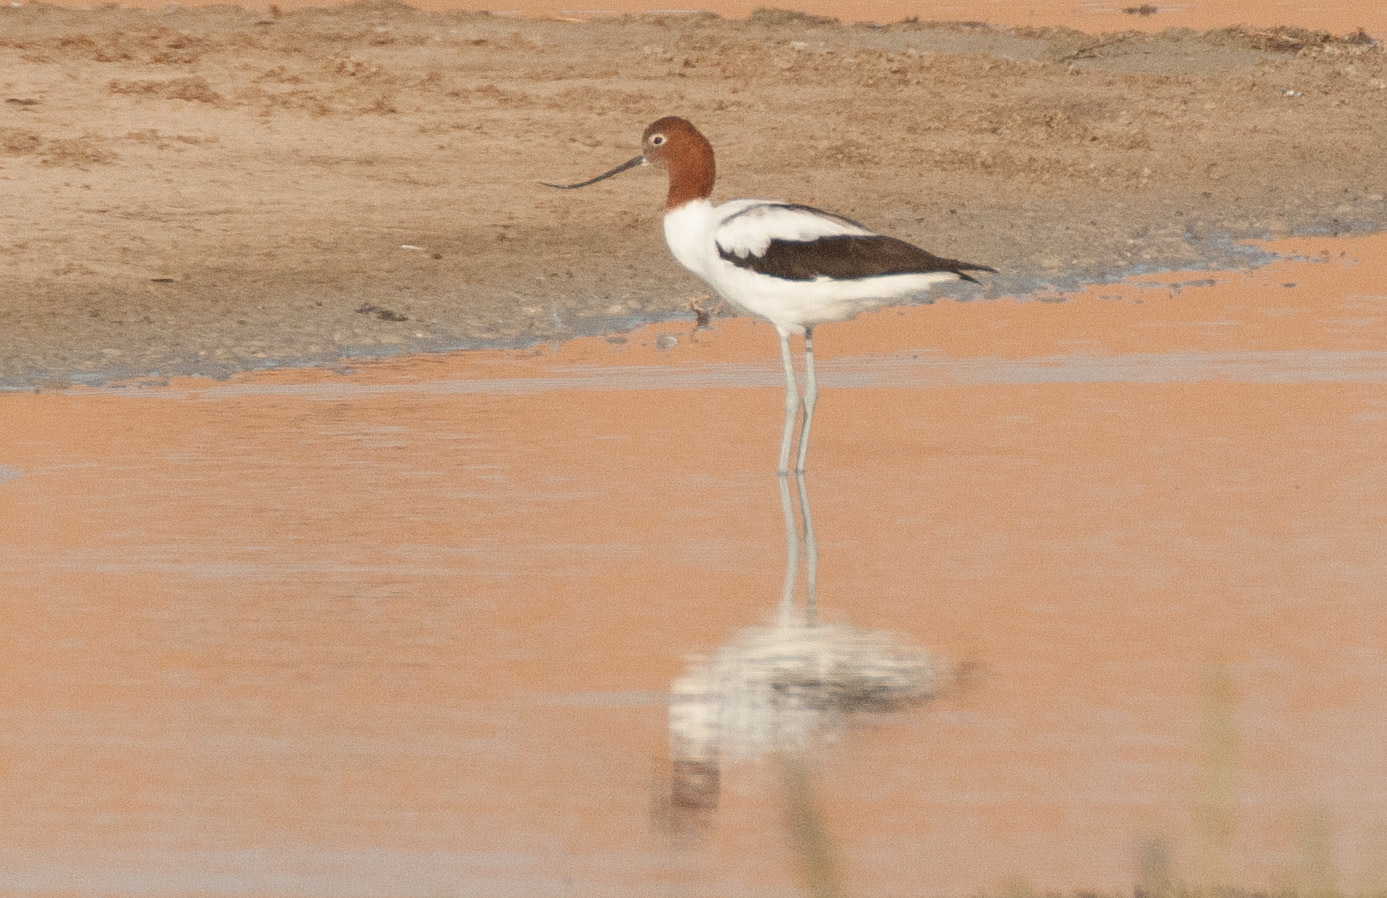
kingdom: Animalia
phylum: Chordata
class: Aves
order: Charadriiformes
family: Recurvirostridae
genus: Recurvirostra
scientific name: Recurvirostra novaehollandiae
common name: Red-necked avocet
